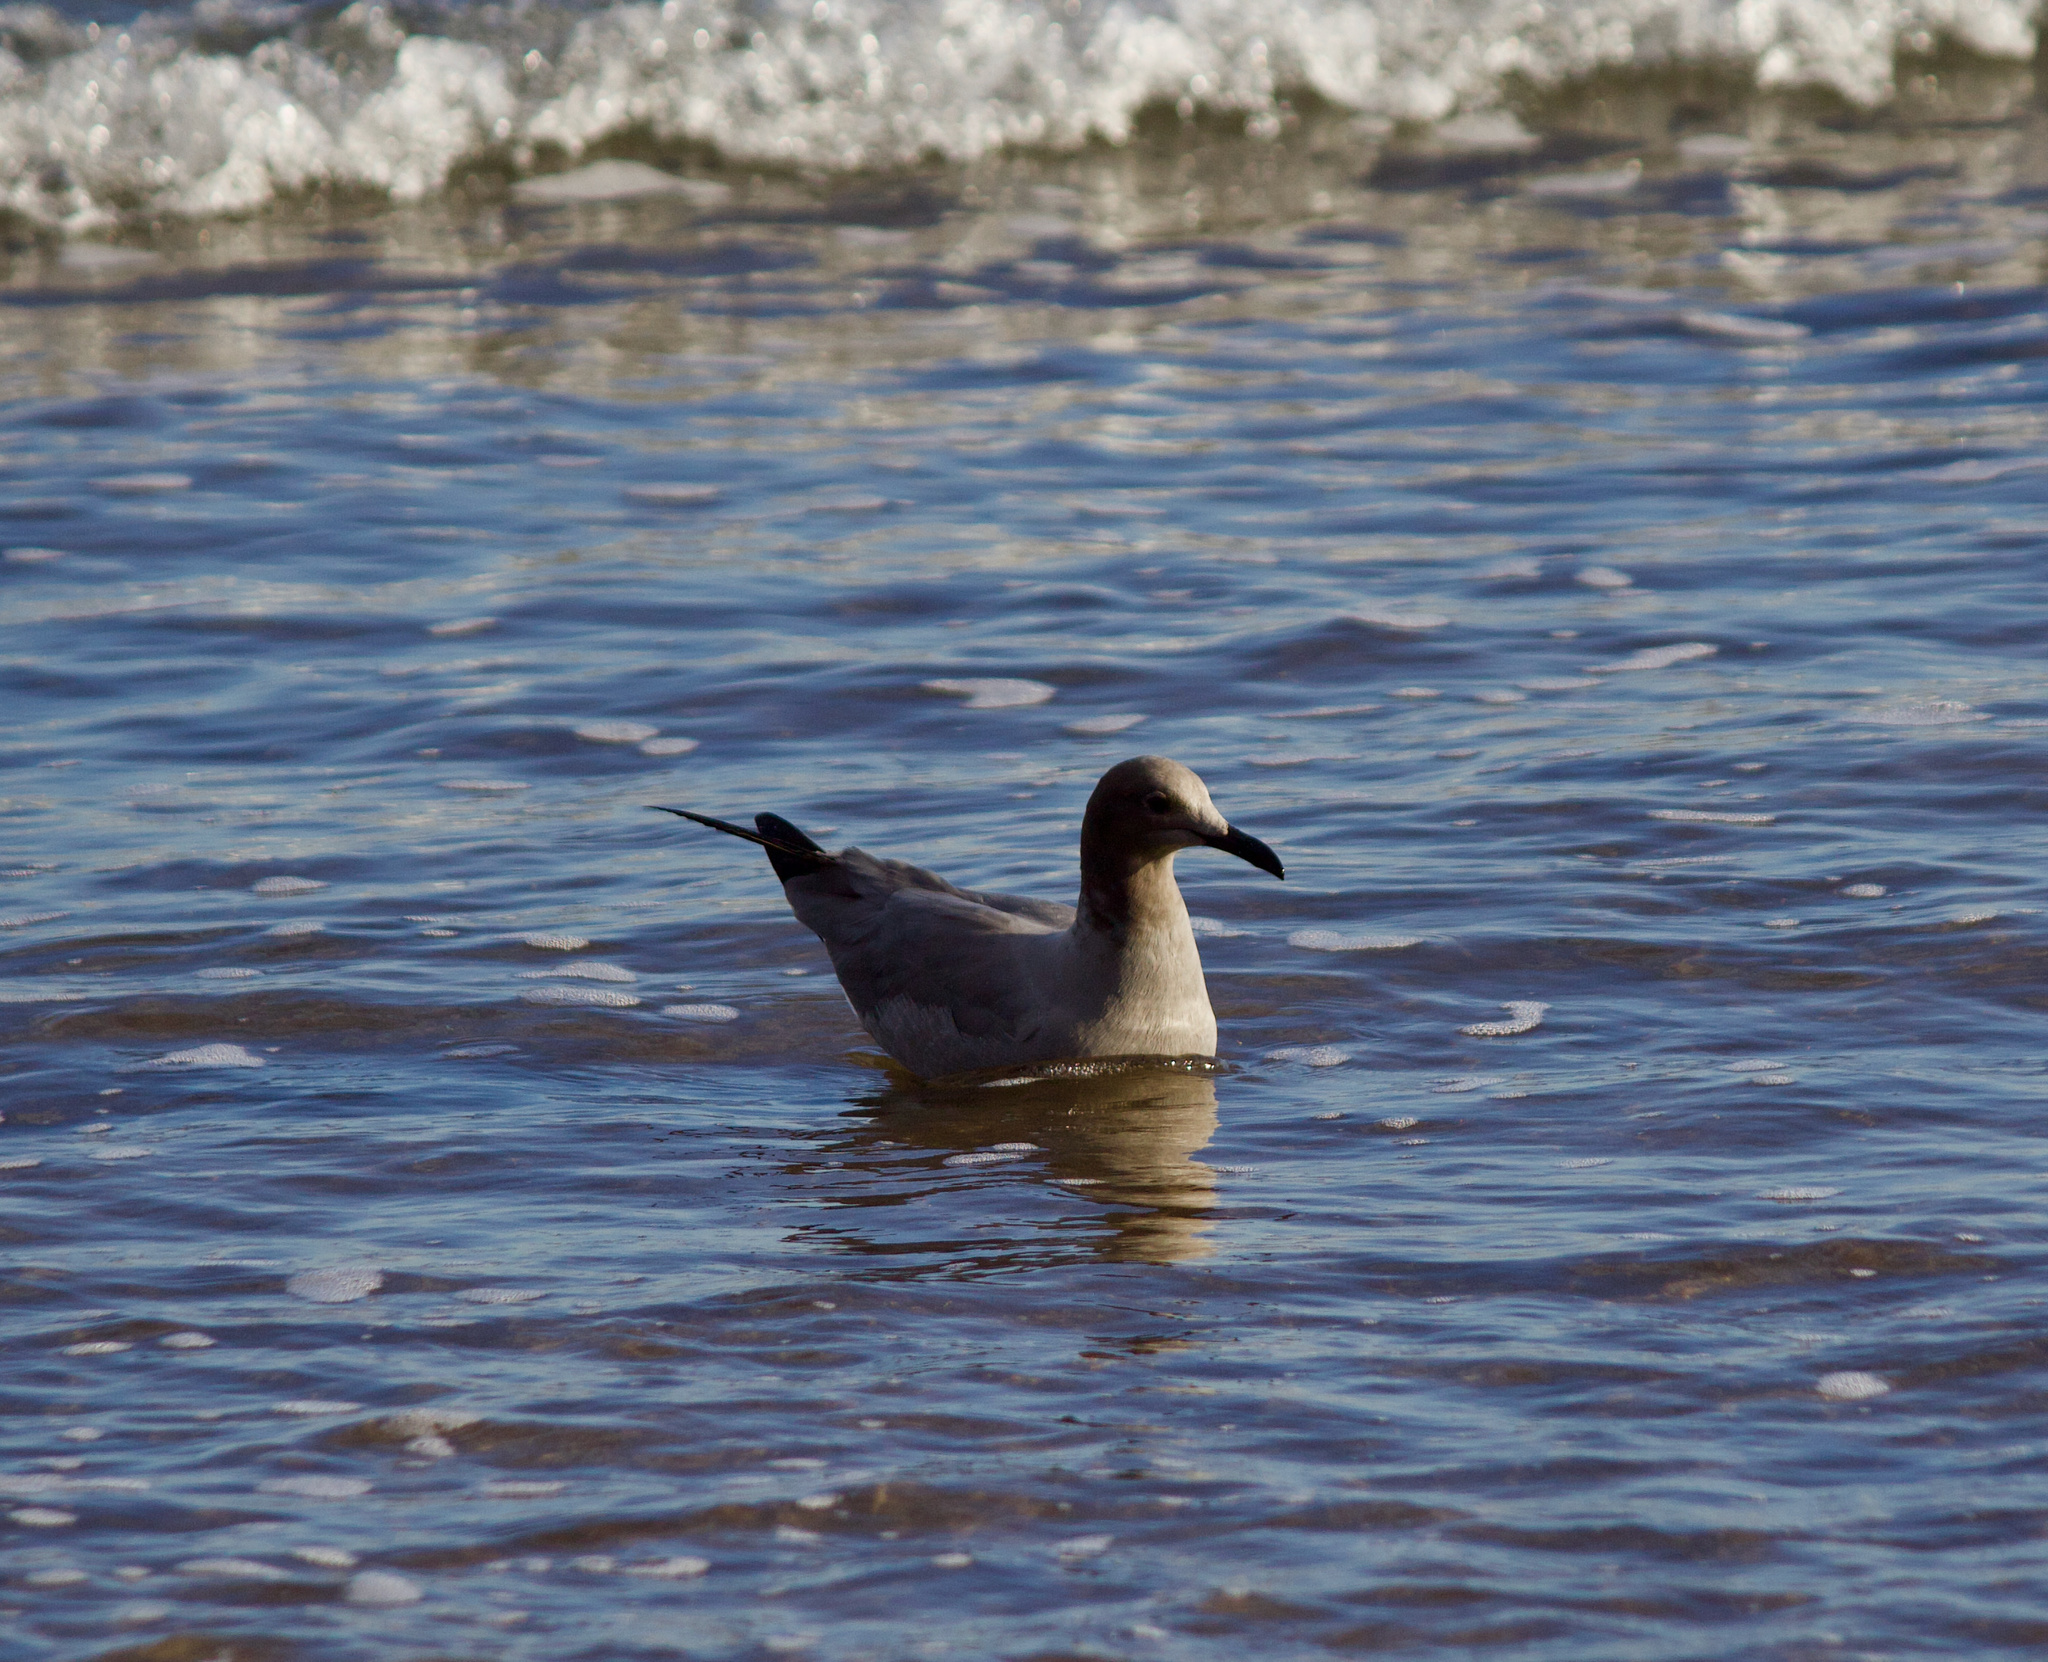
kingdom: Animalia
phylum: Chordata
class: Aves
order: Charadriiformes
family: Laridae
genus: Leucophaeus
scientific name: Leucophaeus modestus
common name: Gray gull
